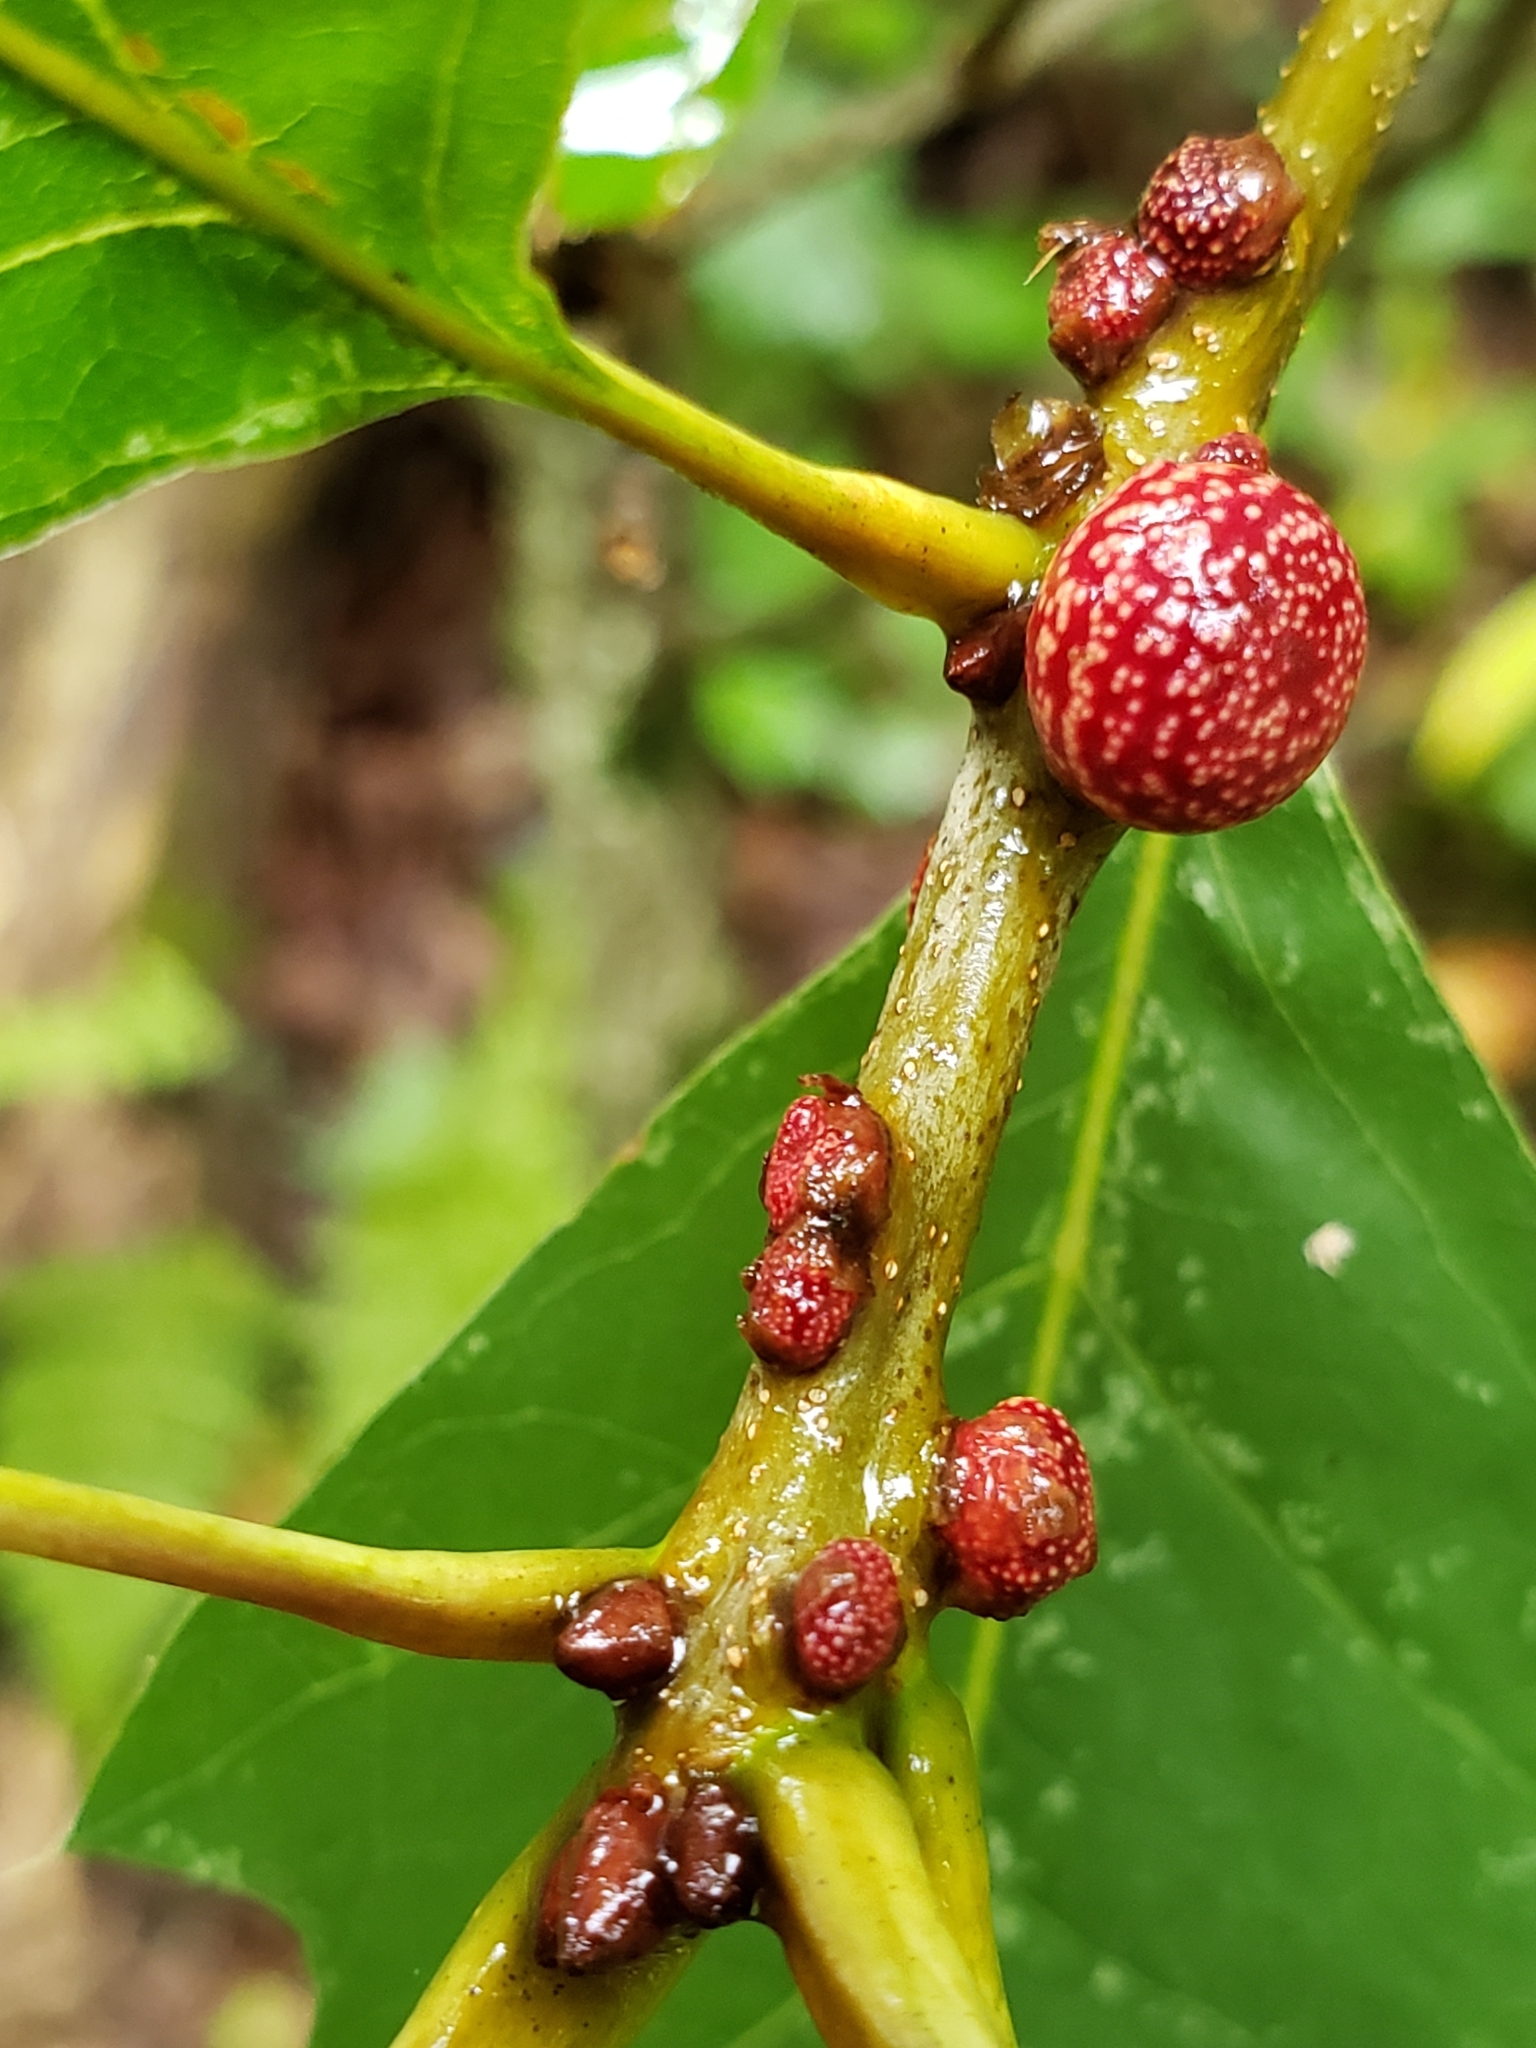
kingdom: Animalia
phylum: Arthropoda
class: Insecta
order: Hymenoptera
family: Cynipidae
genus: Kokkocynips
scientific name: Kokkocynips imbricariae
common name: Banded bullet gall wasp
